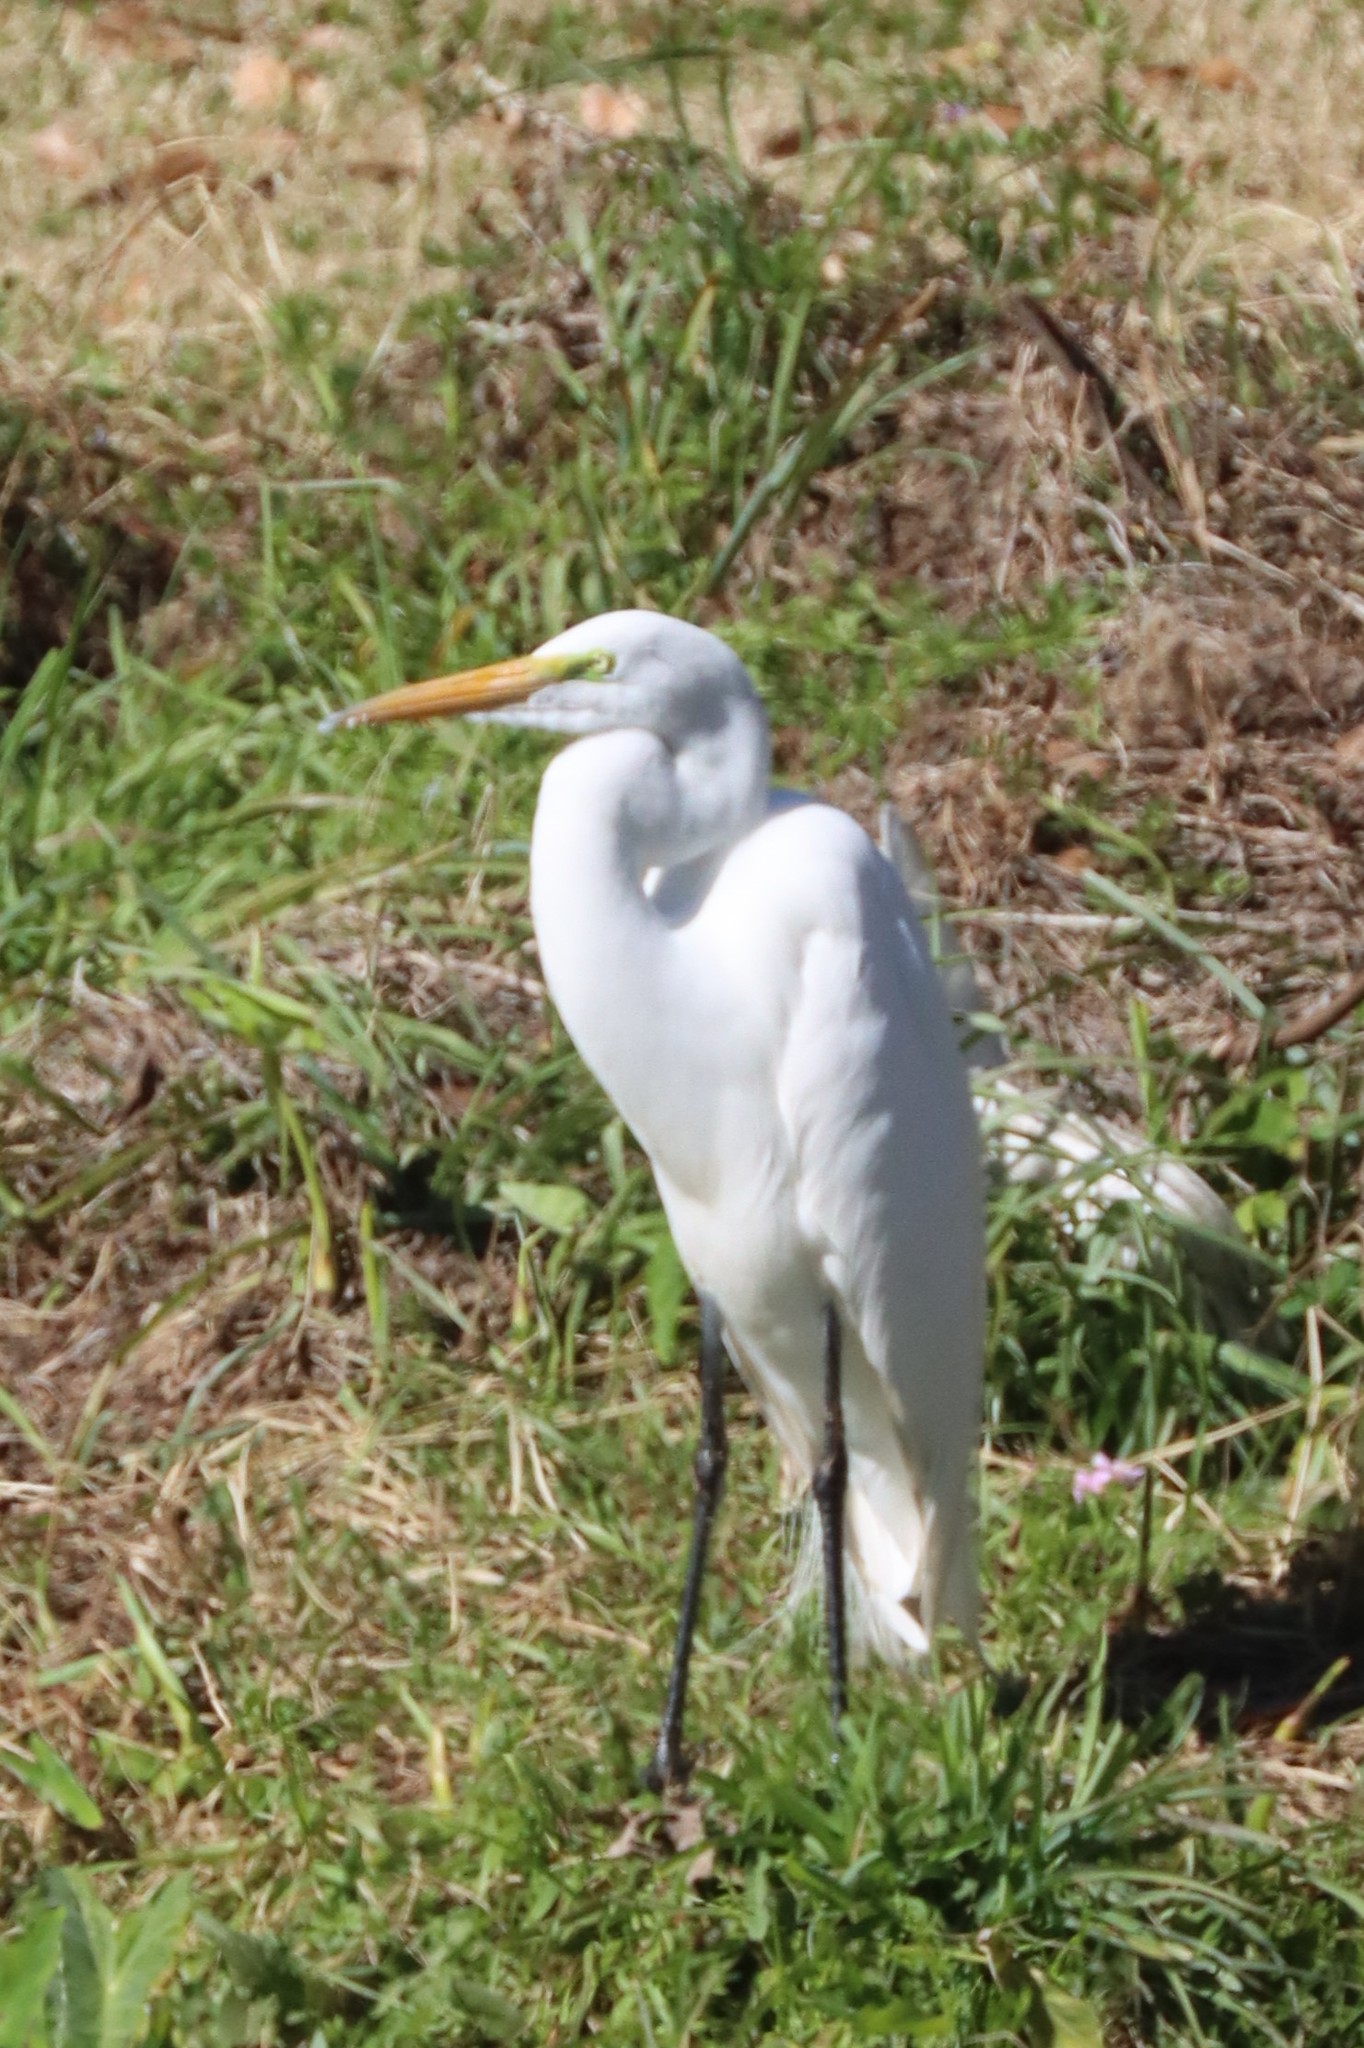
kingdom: Animalia
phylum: Chordata
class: Aves
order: Pelecaniformes
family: Ardeidae
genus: Ardea
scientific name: Ardea alba
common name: Great egret
